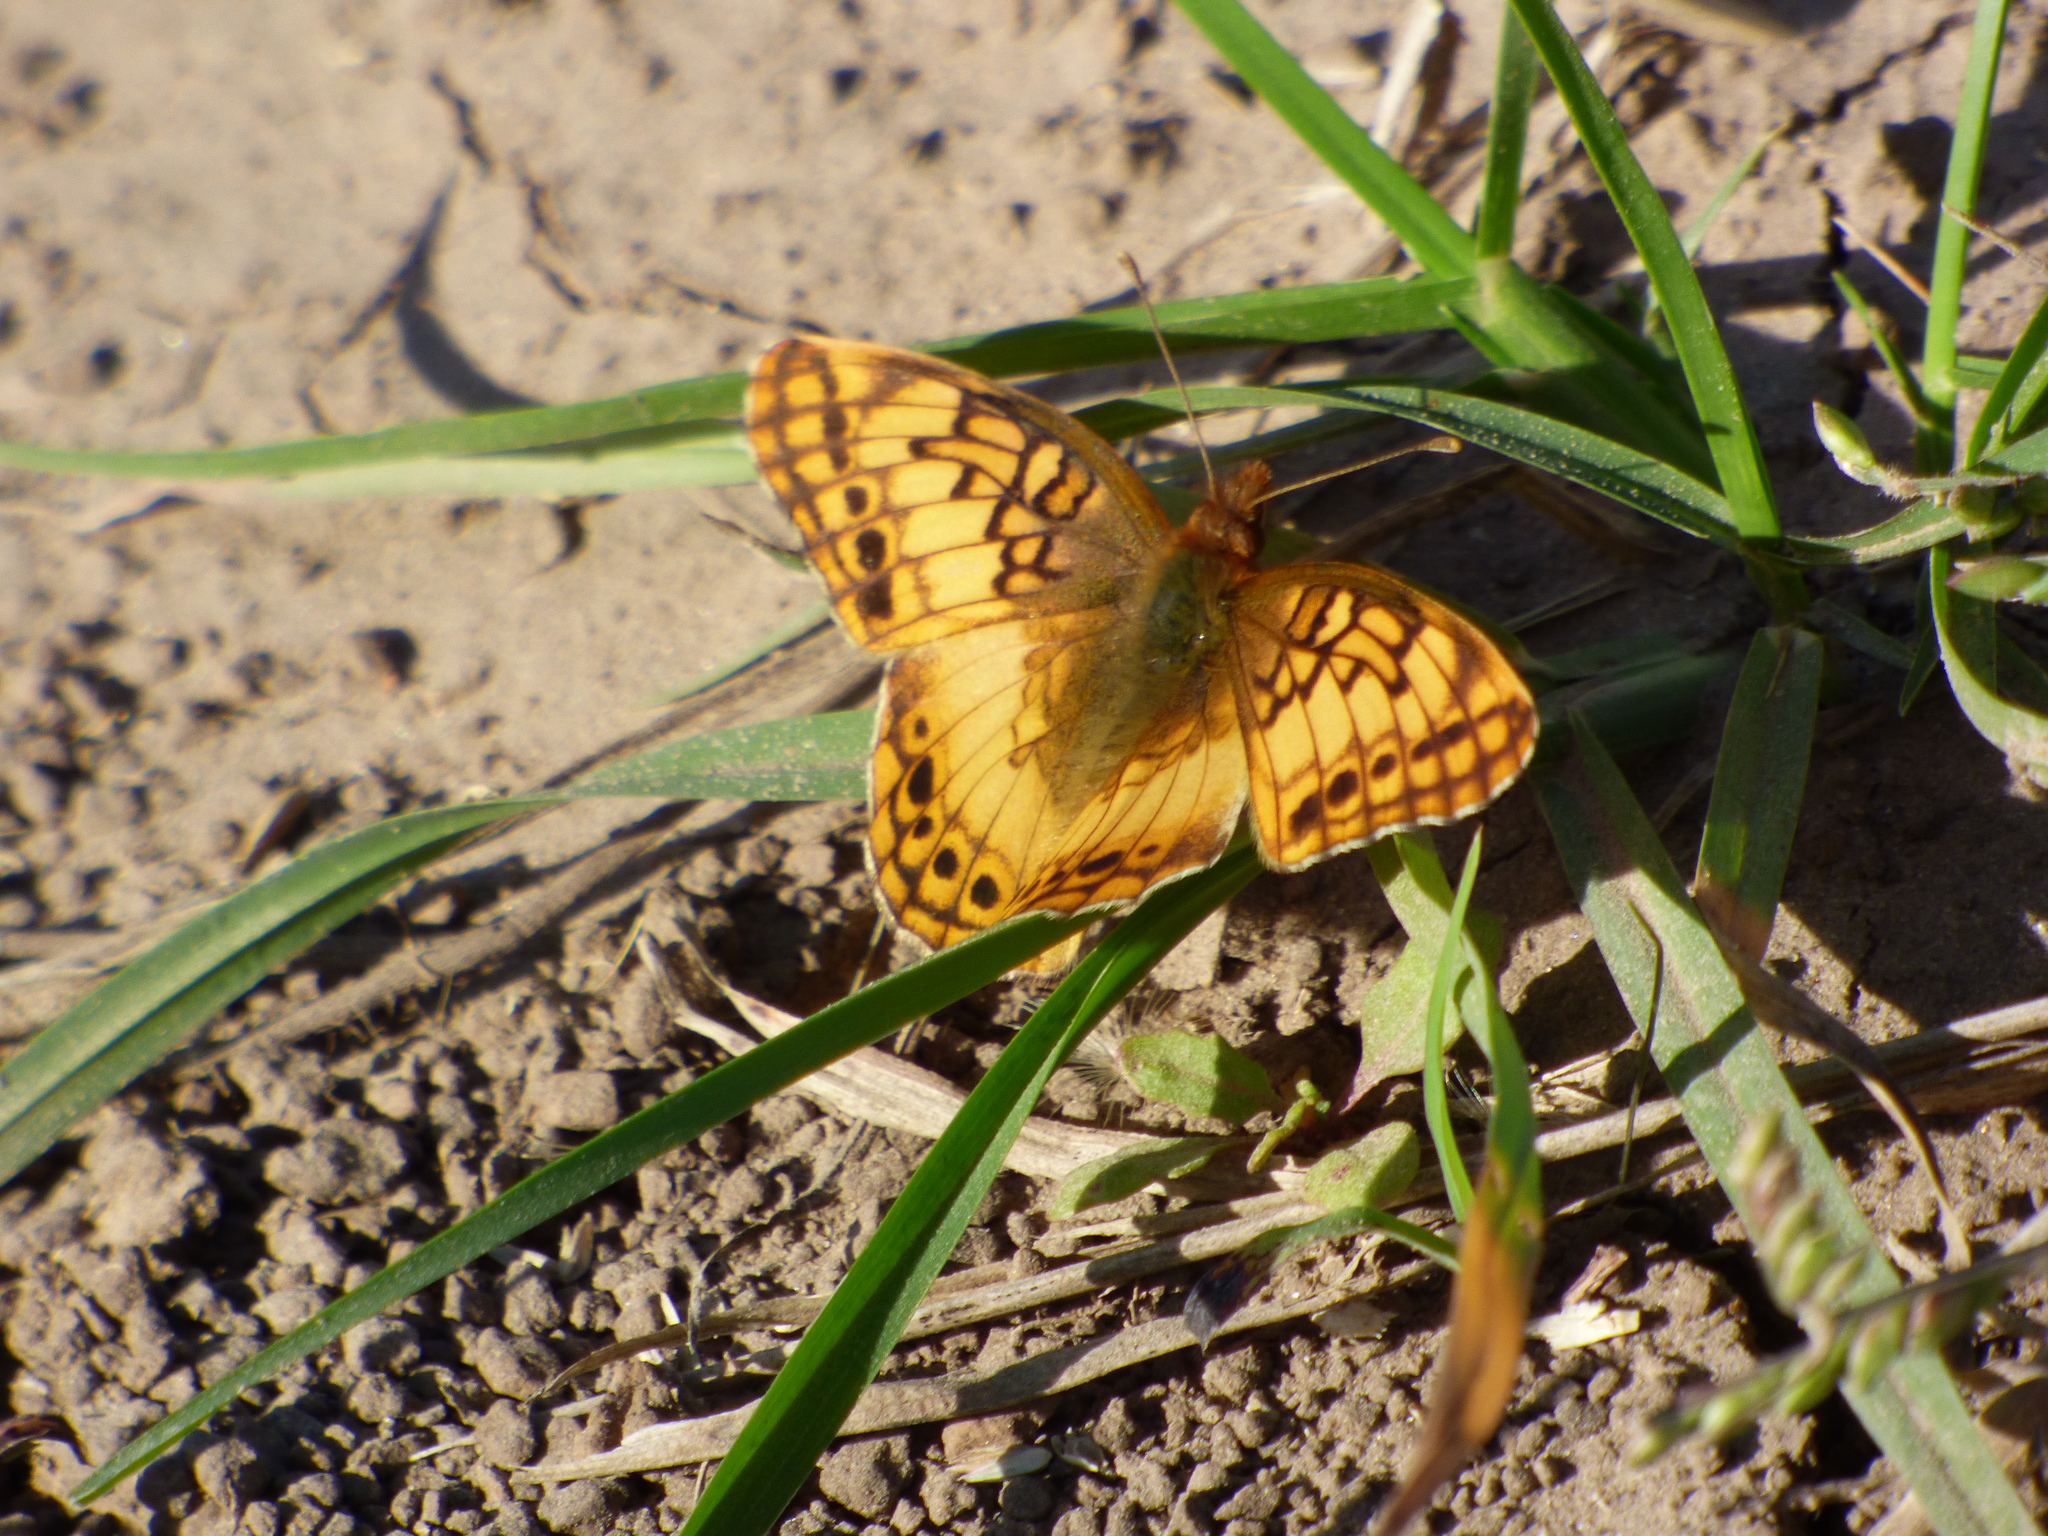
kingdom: Animalia
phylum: Arthropoda
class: Insecta
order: Lepidoptera
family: Nymphalidae
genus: Euptoieta
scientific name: Euptoieta hortensia
